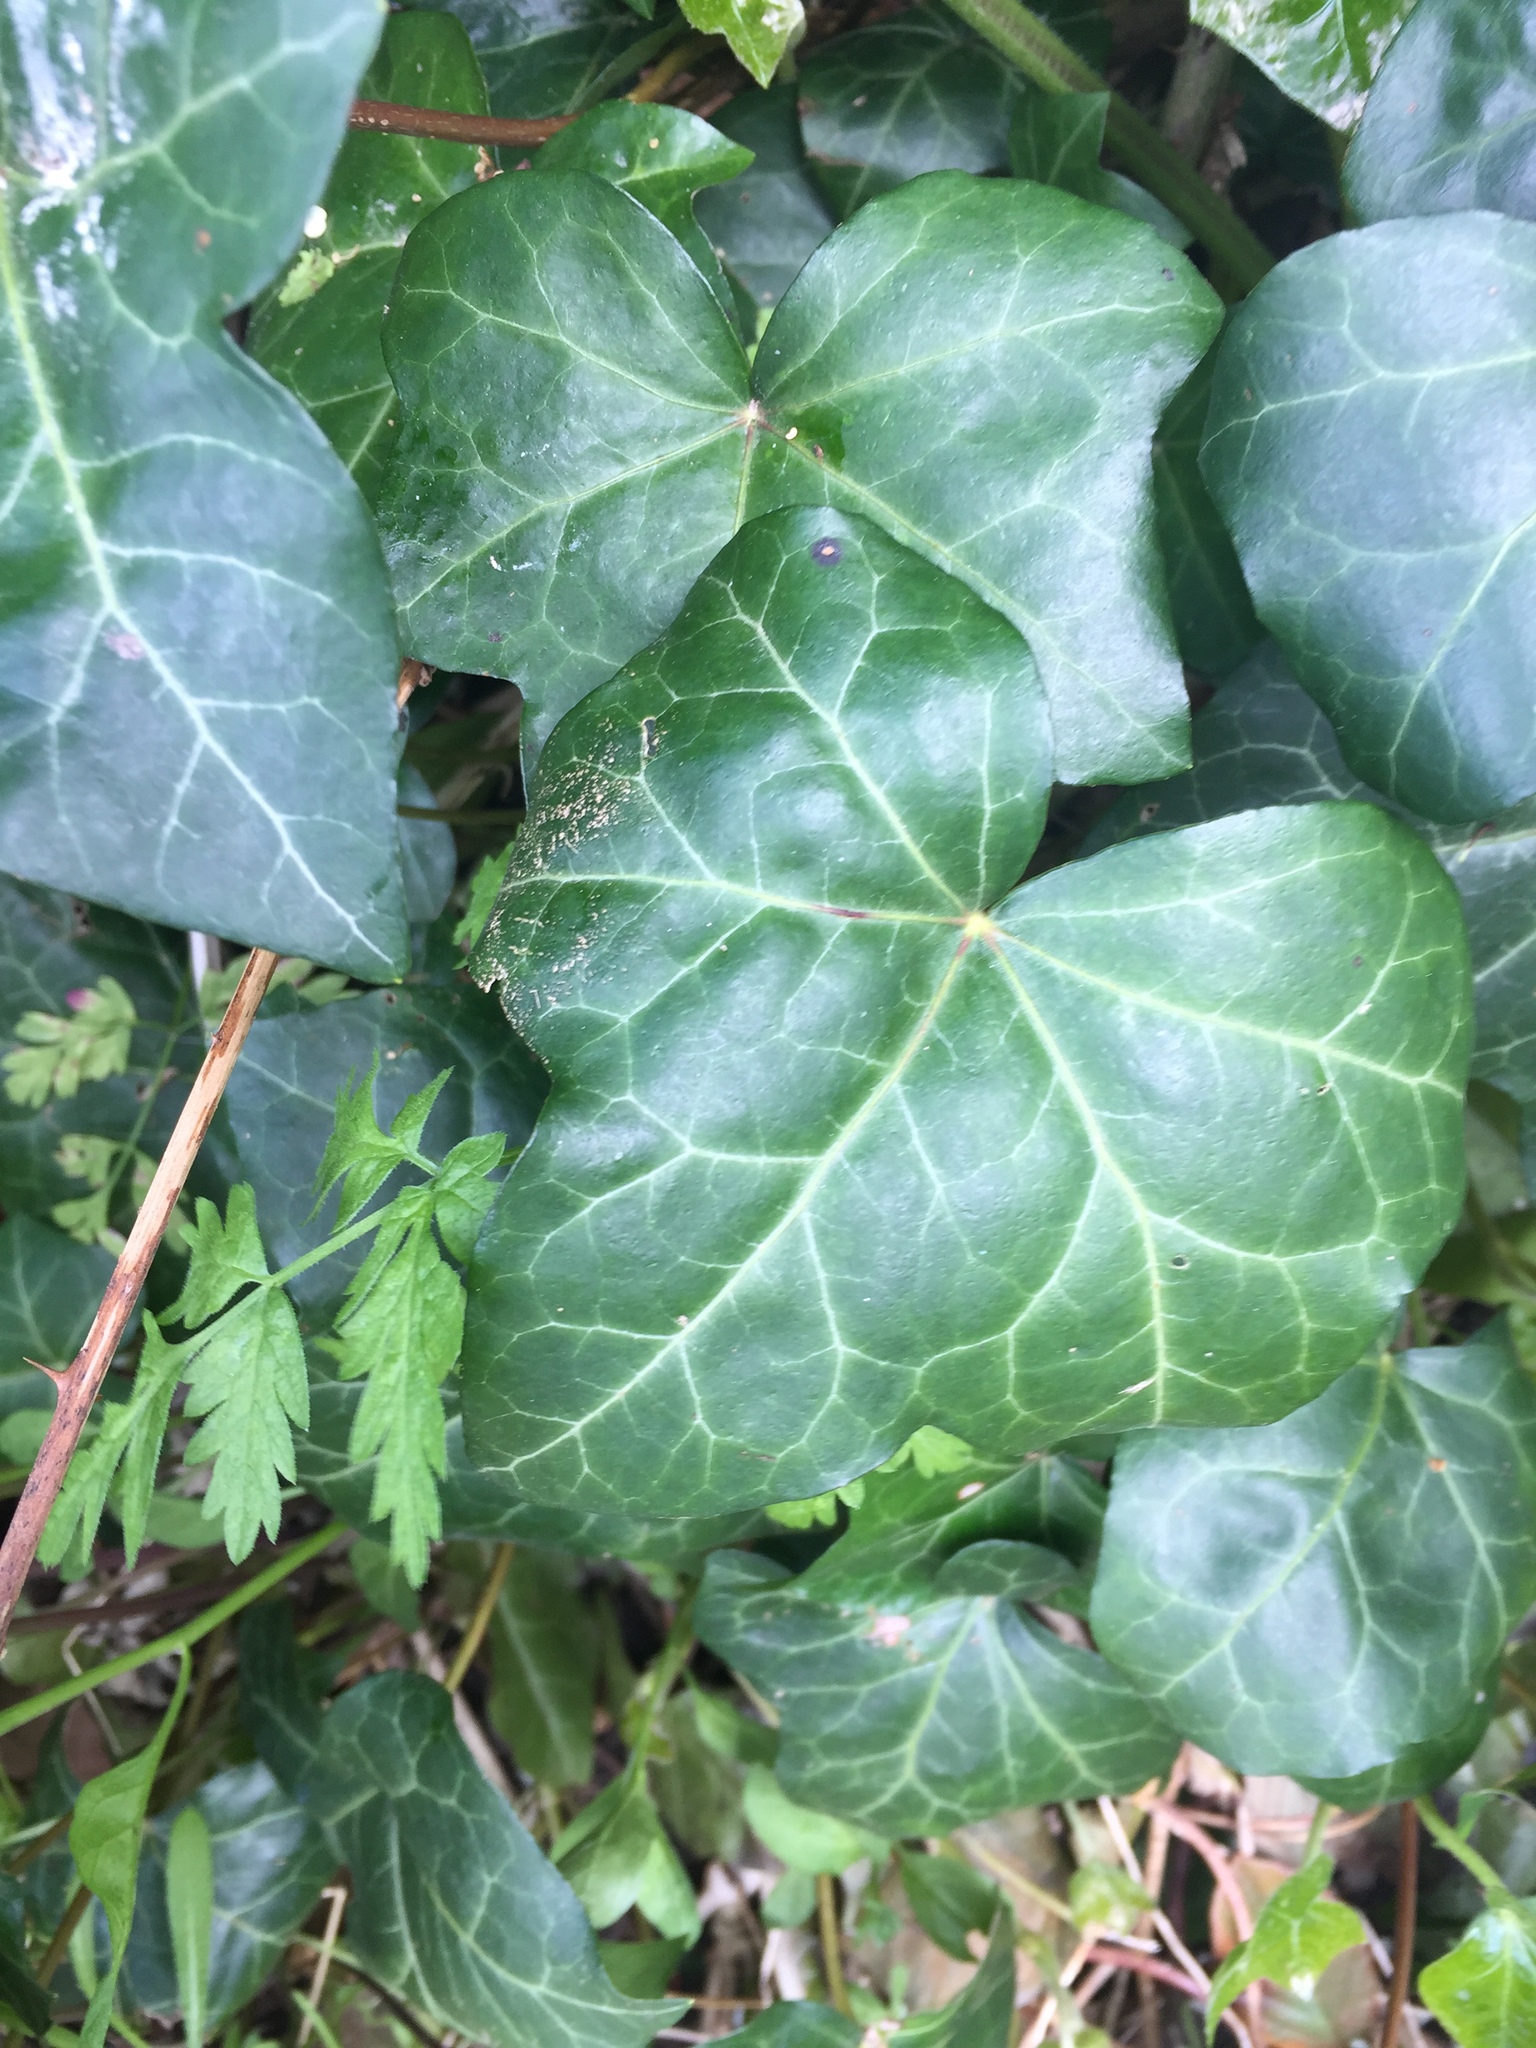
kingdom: Plantae
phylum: Tracheophyta
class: Magnoliopsida
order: Apiales
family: Araliaceae
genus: Hedera
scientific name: Hedera helix
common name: Ivy
